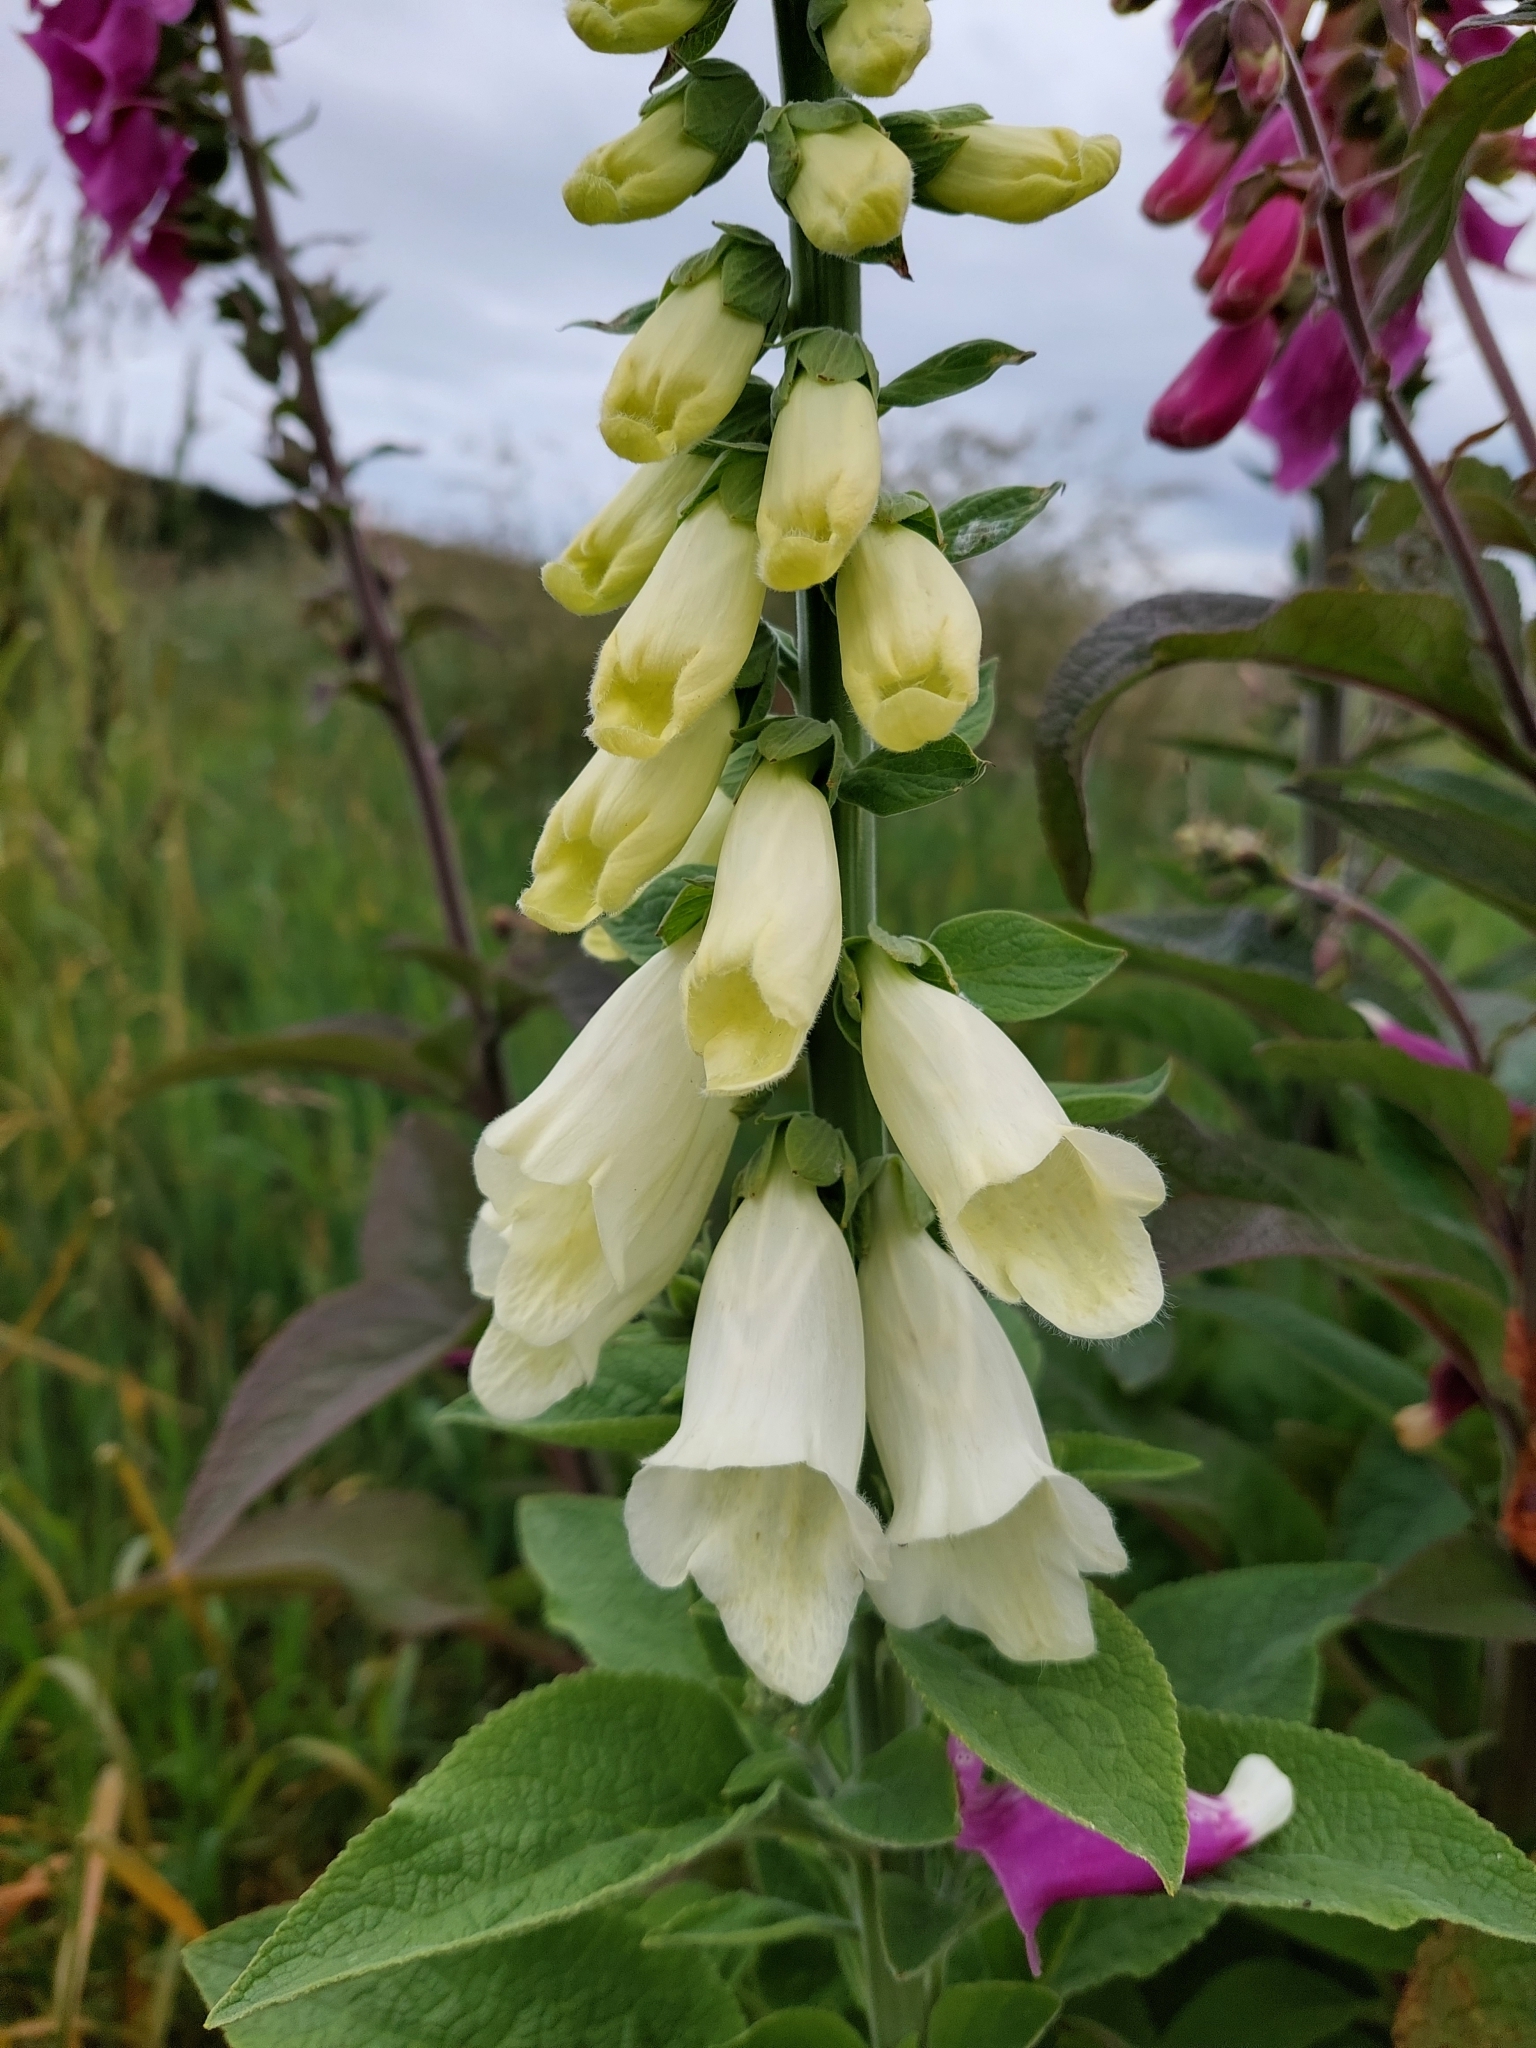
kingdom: Plantae
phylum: Tracheophyta
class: Magnoliopsida
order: Lamiales
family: Plantaginaceae
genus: Digitalis
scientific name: Digitalis purpurea
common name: Foxglove
